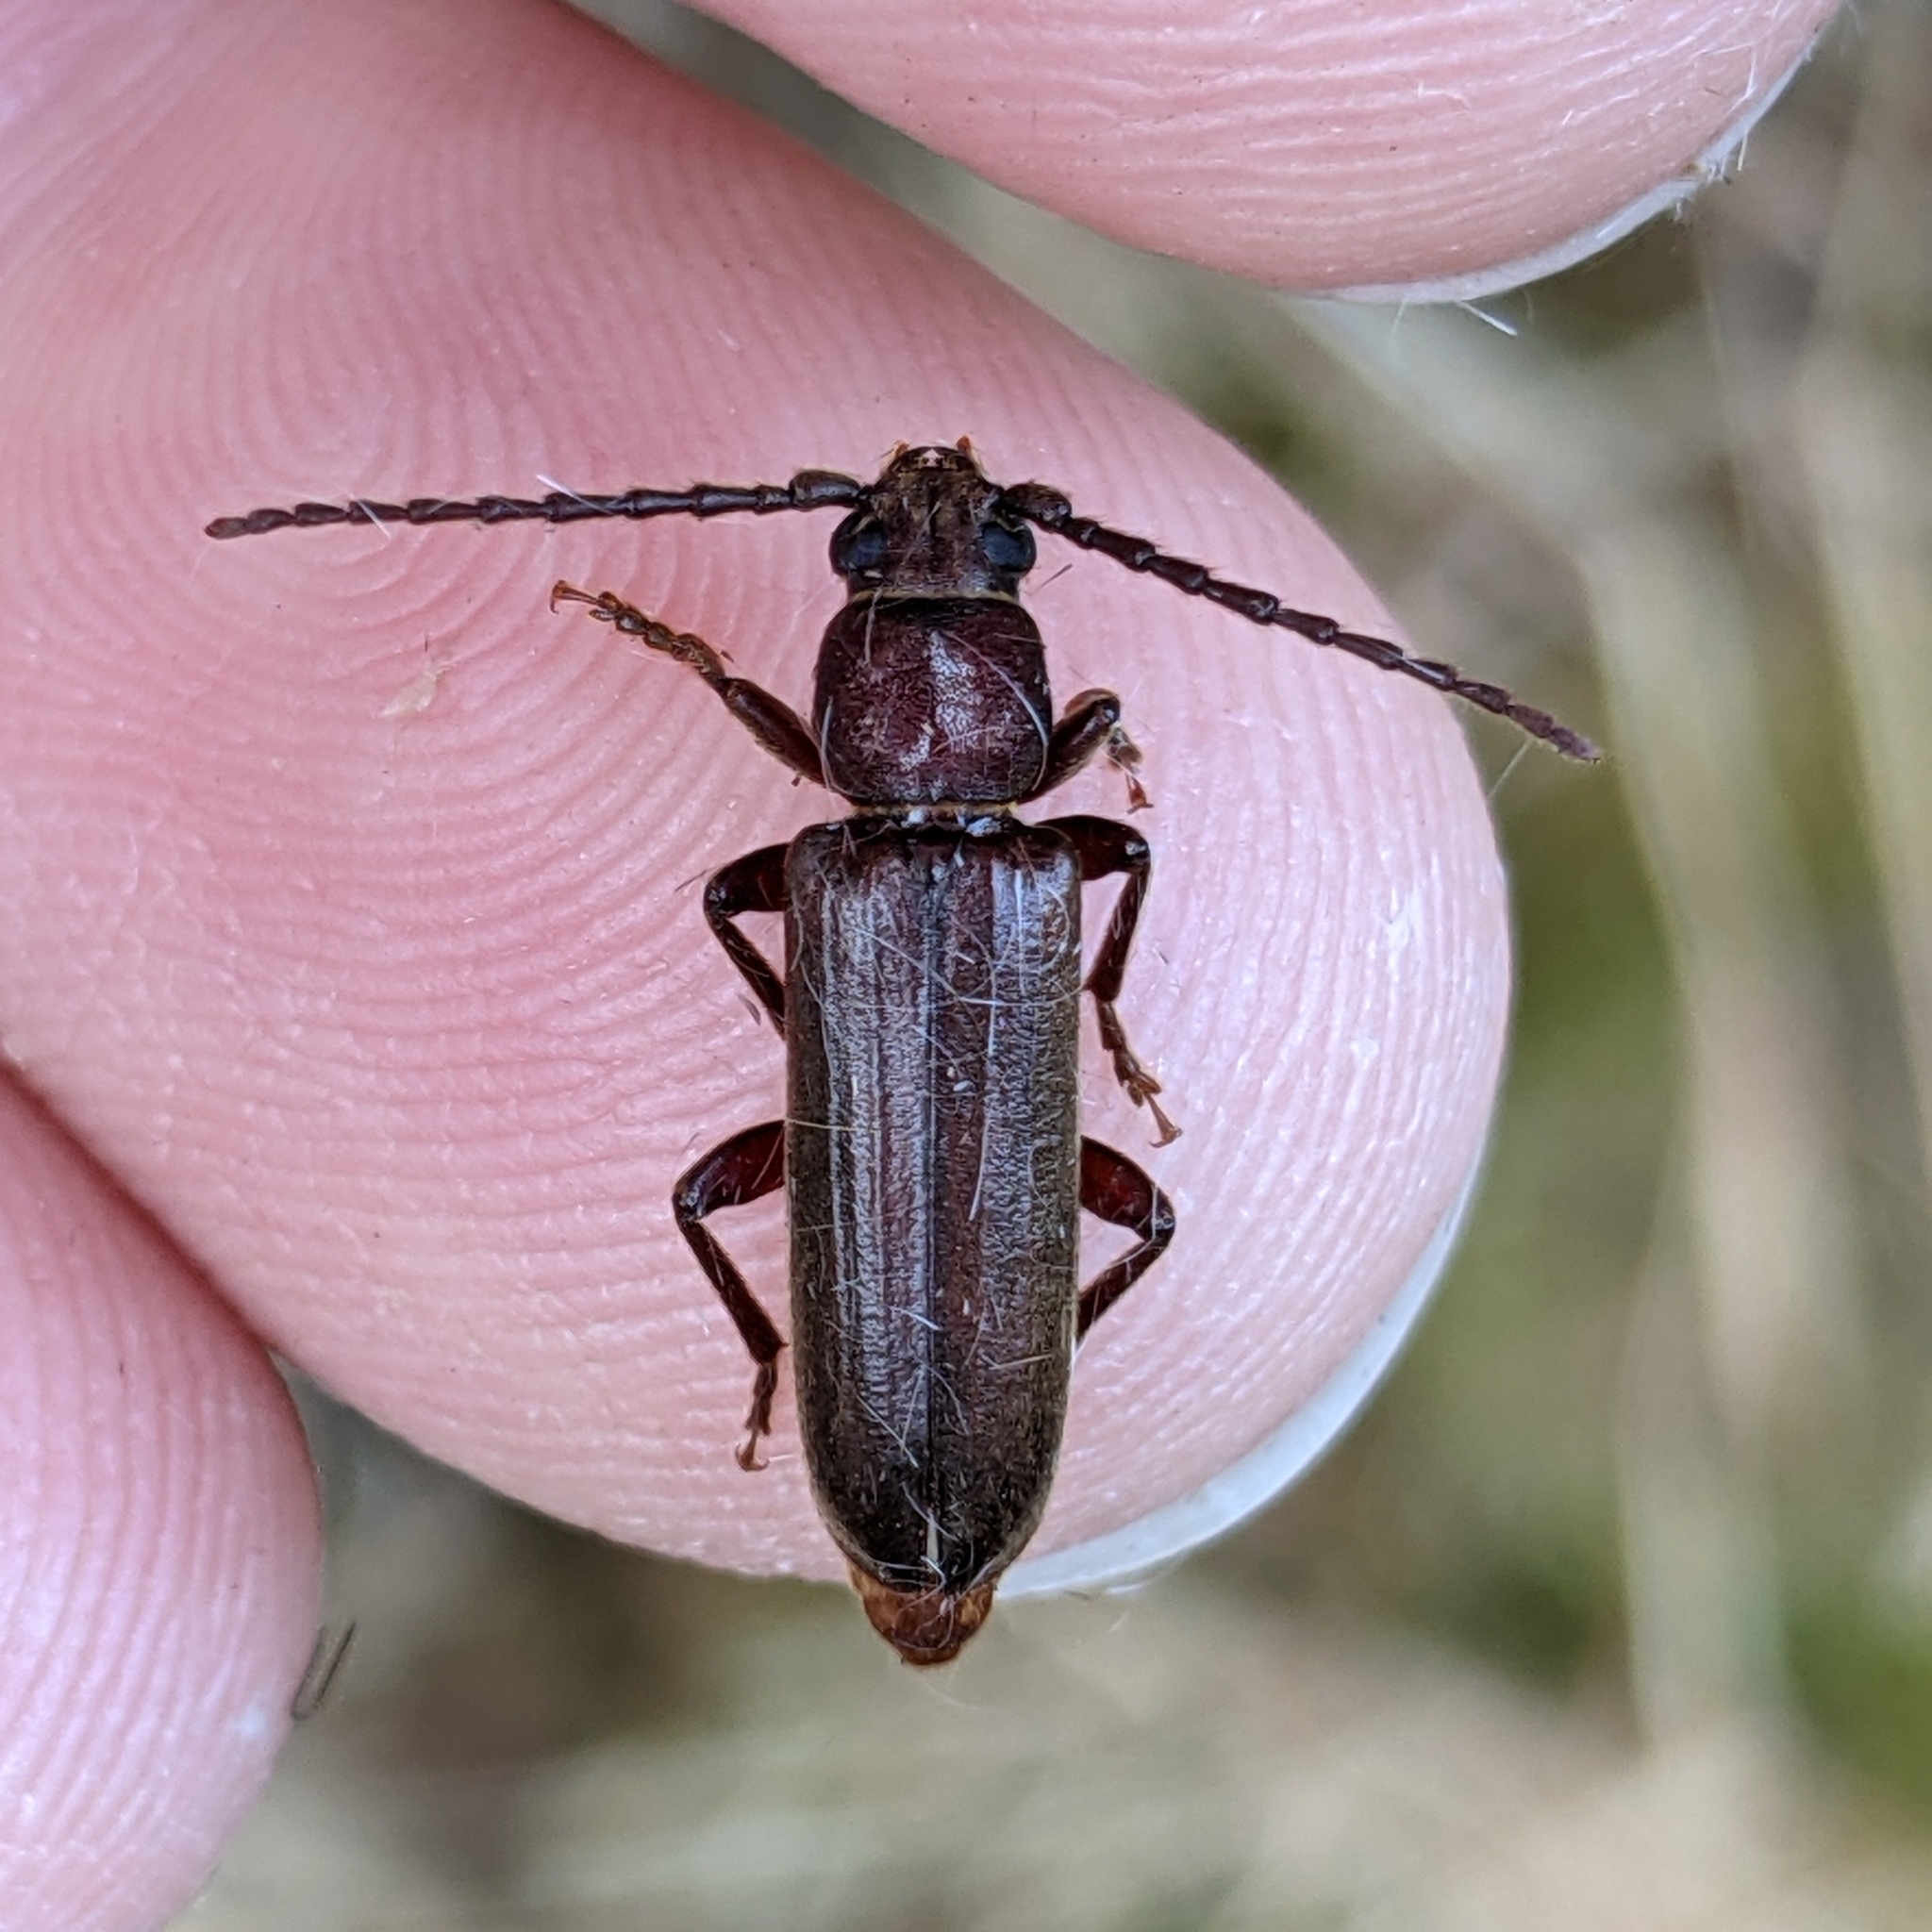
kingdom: Animalia
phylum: Arthropoda
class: Insecta
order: Coleoptera
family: Cerambycidae
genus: Megasemum
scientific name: Megasemum asperum
